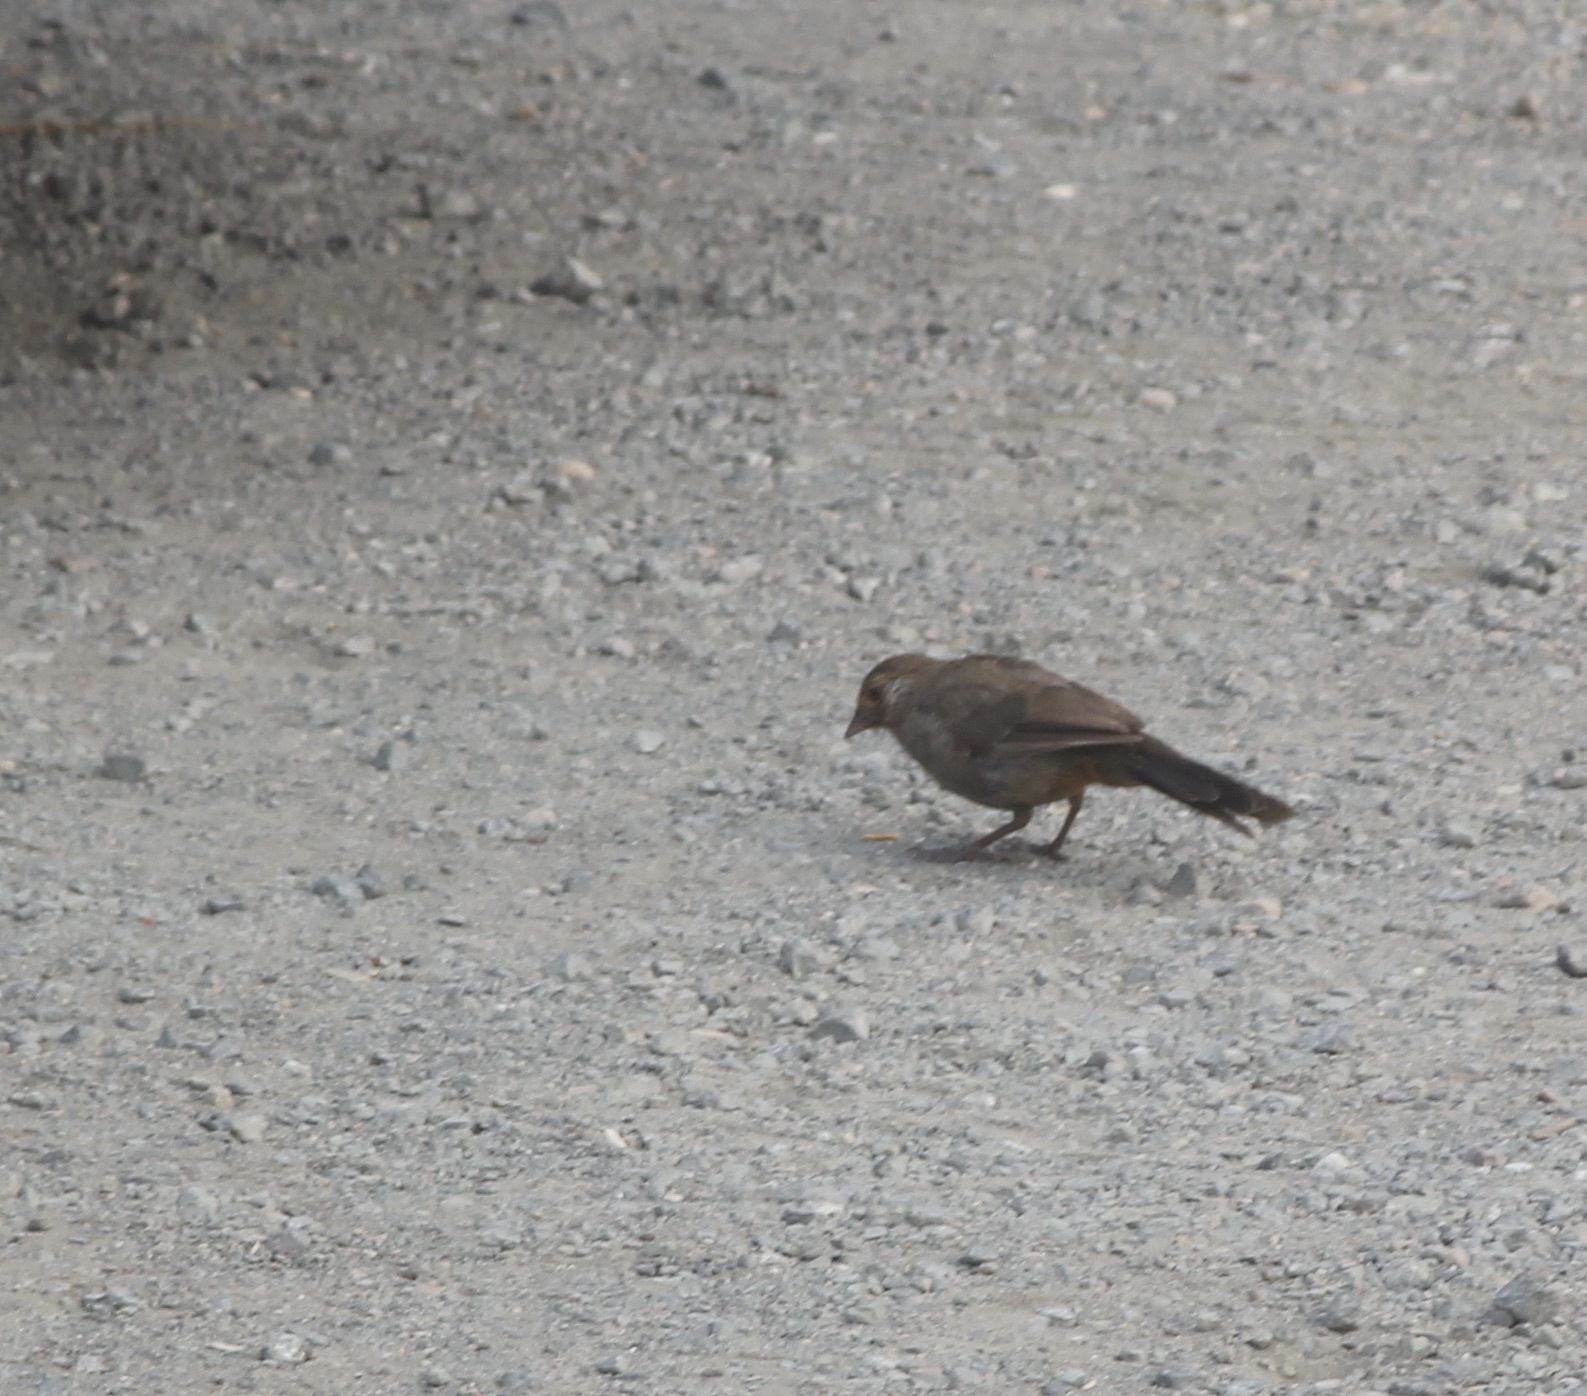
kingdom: Animalia
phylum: Chordata
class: Aves
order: Passeriformes
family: Passerellidae
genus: Melozone
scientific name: Melozone crissalis
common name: California towhee
